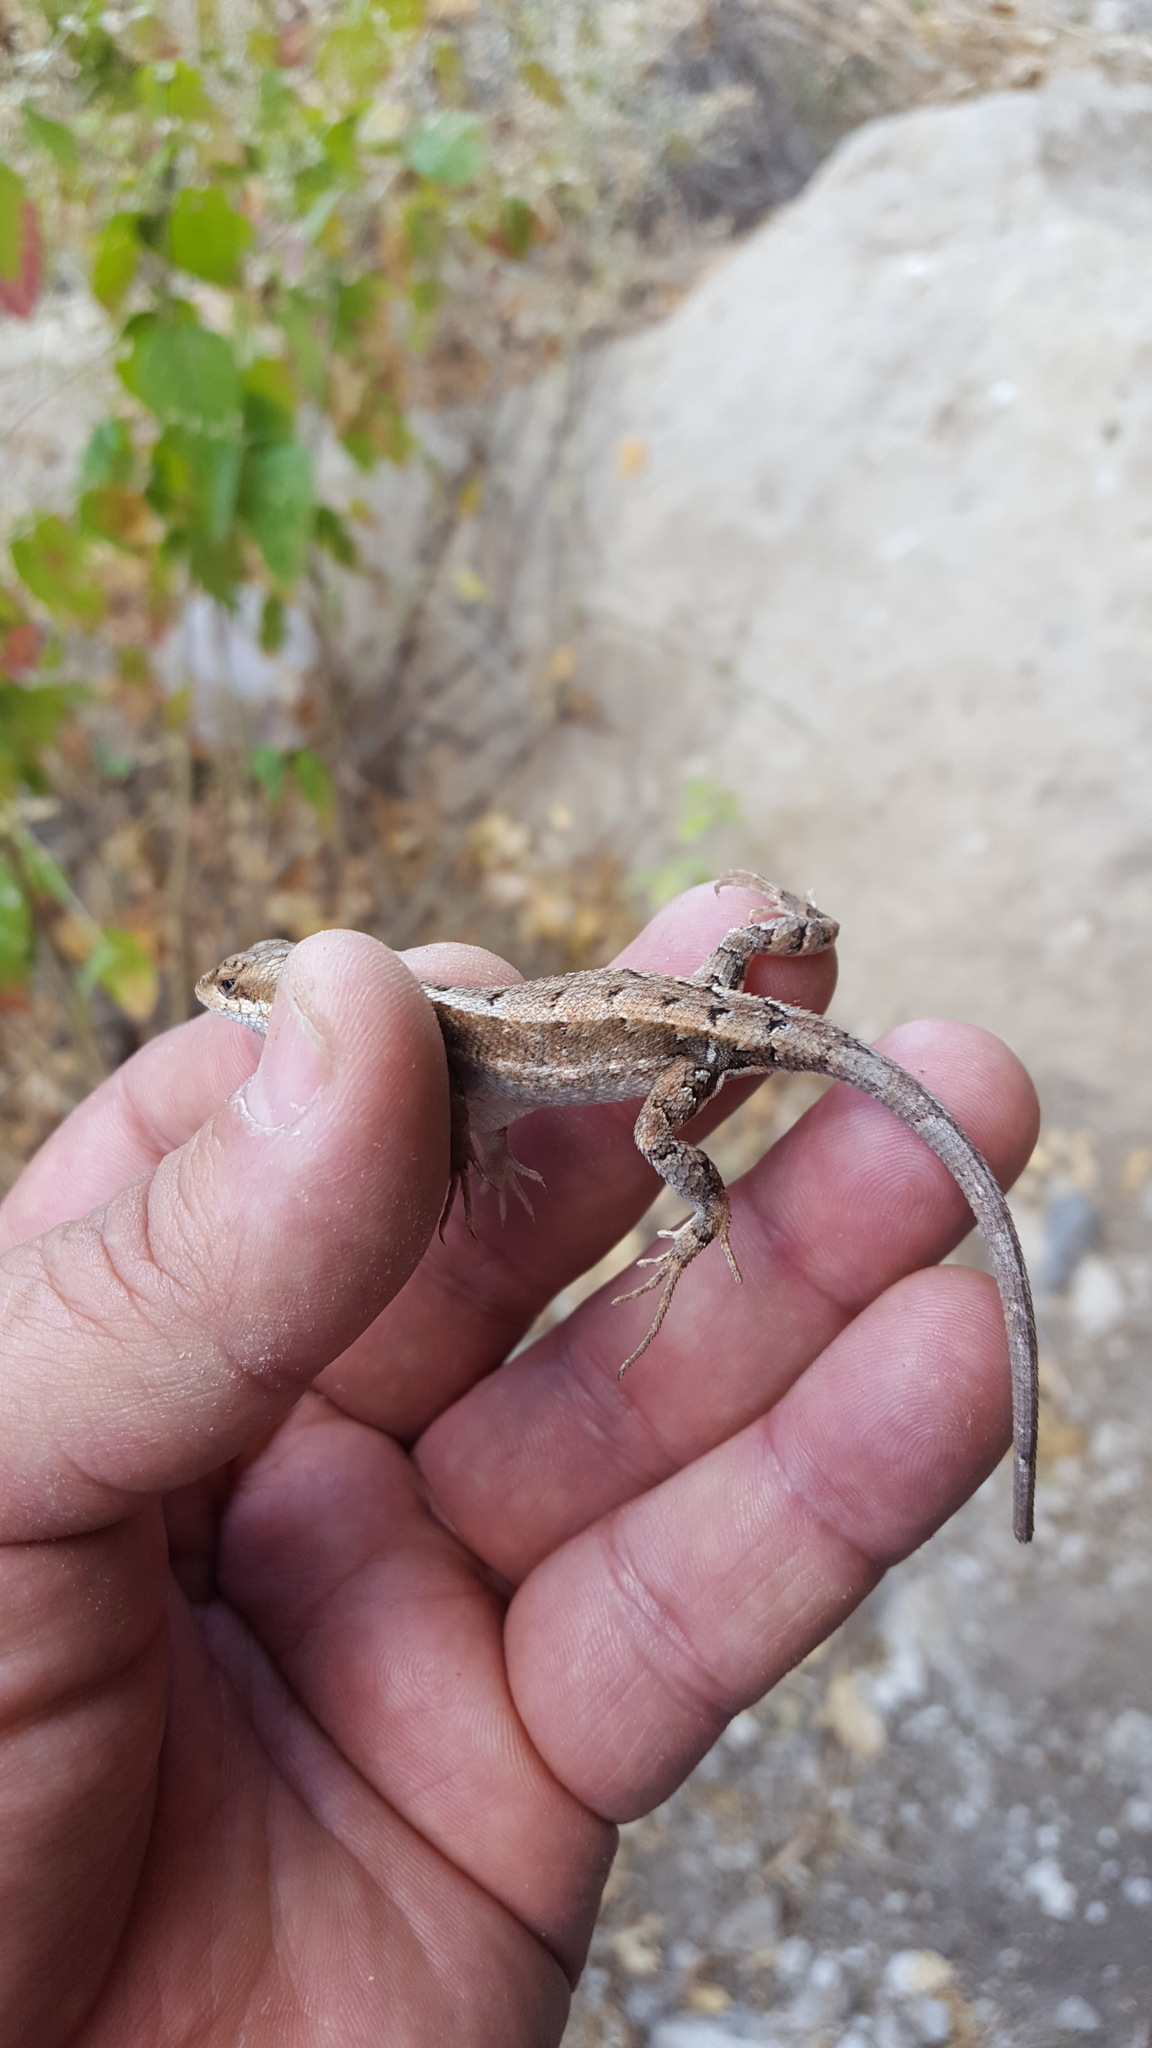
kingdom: Animalia
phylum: Chordata
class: Squamata
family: Phrynosomatidae
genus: Sceloporus
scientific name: Sceloporus siniferus
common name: Longtail spiny lizard
